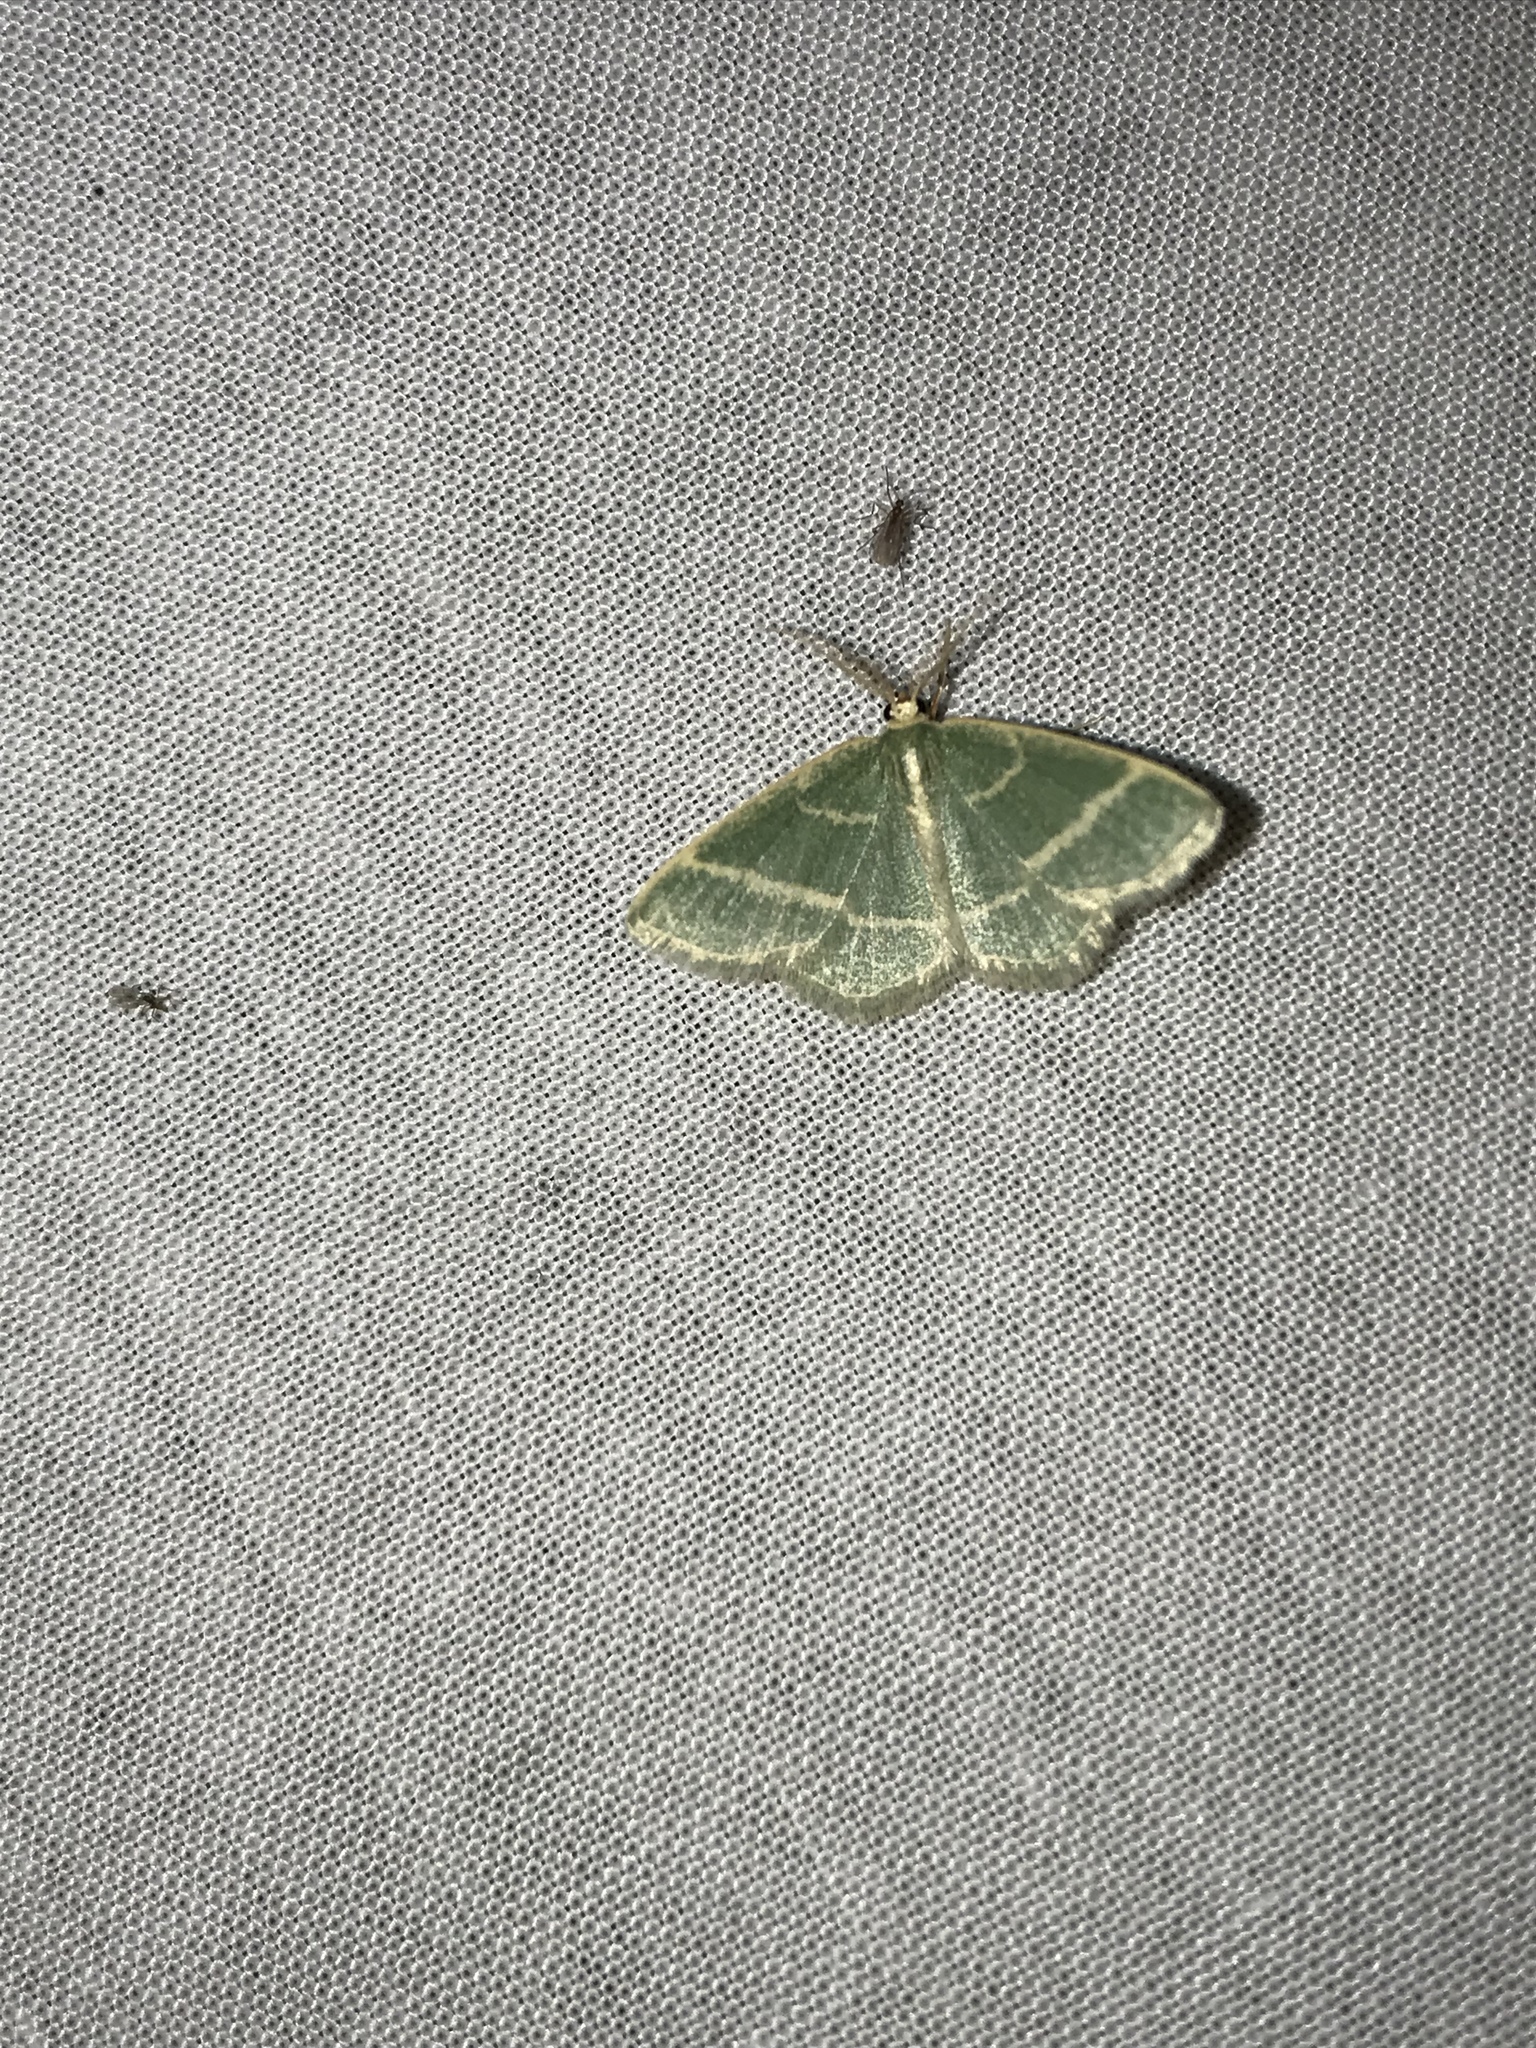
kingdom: Animalia
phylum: Arthropoda
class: Insecta
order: Lepidoptera
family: Geometridae
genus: Chlorochlamys
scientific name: Chlorochlamys chloroleucaria
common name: Blackberry looper
